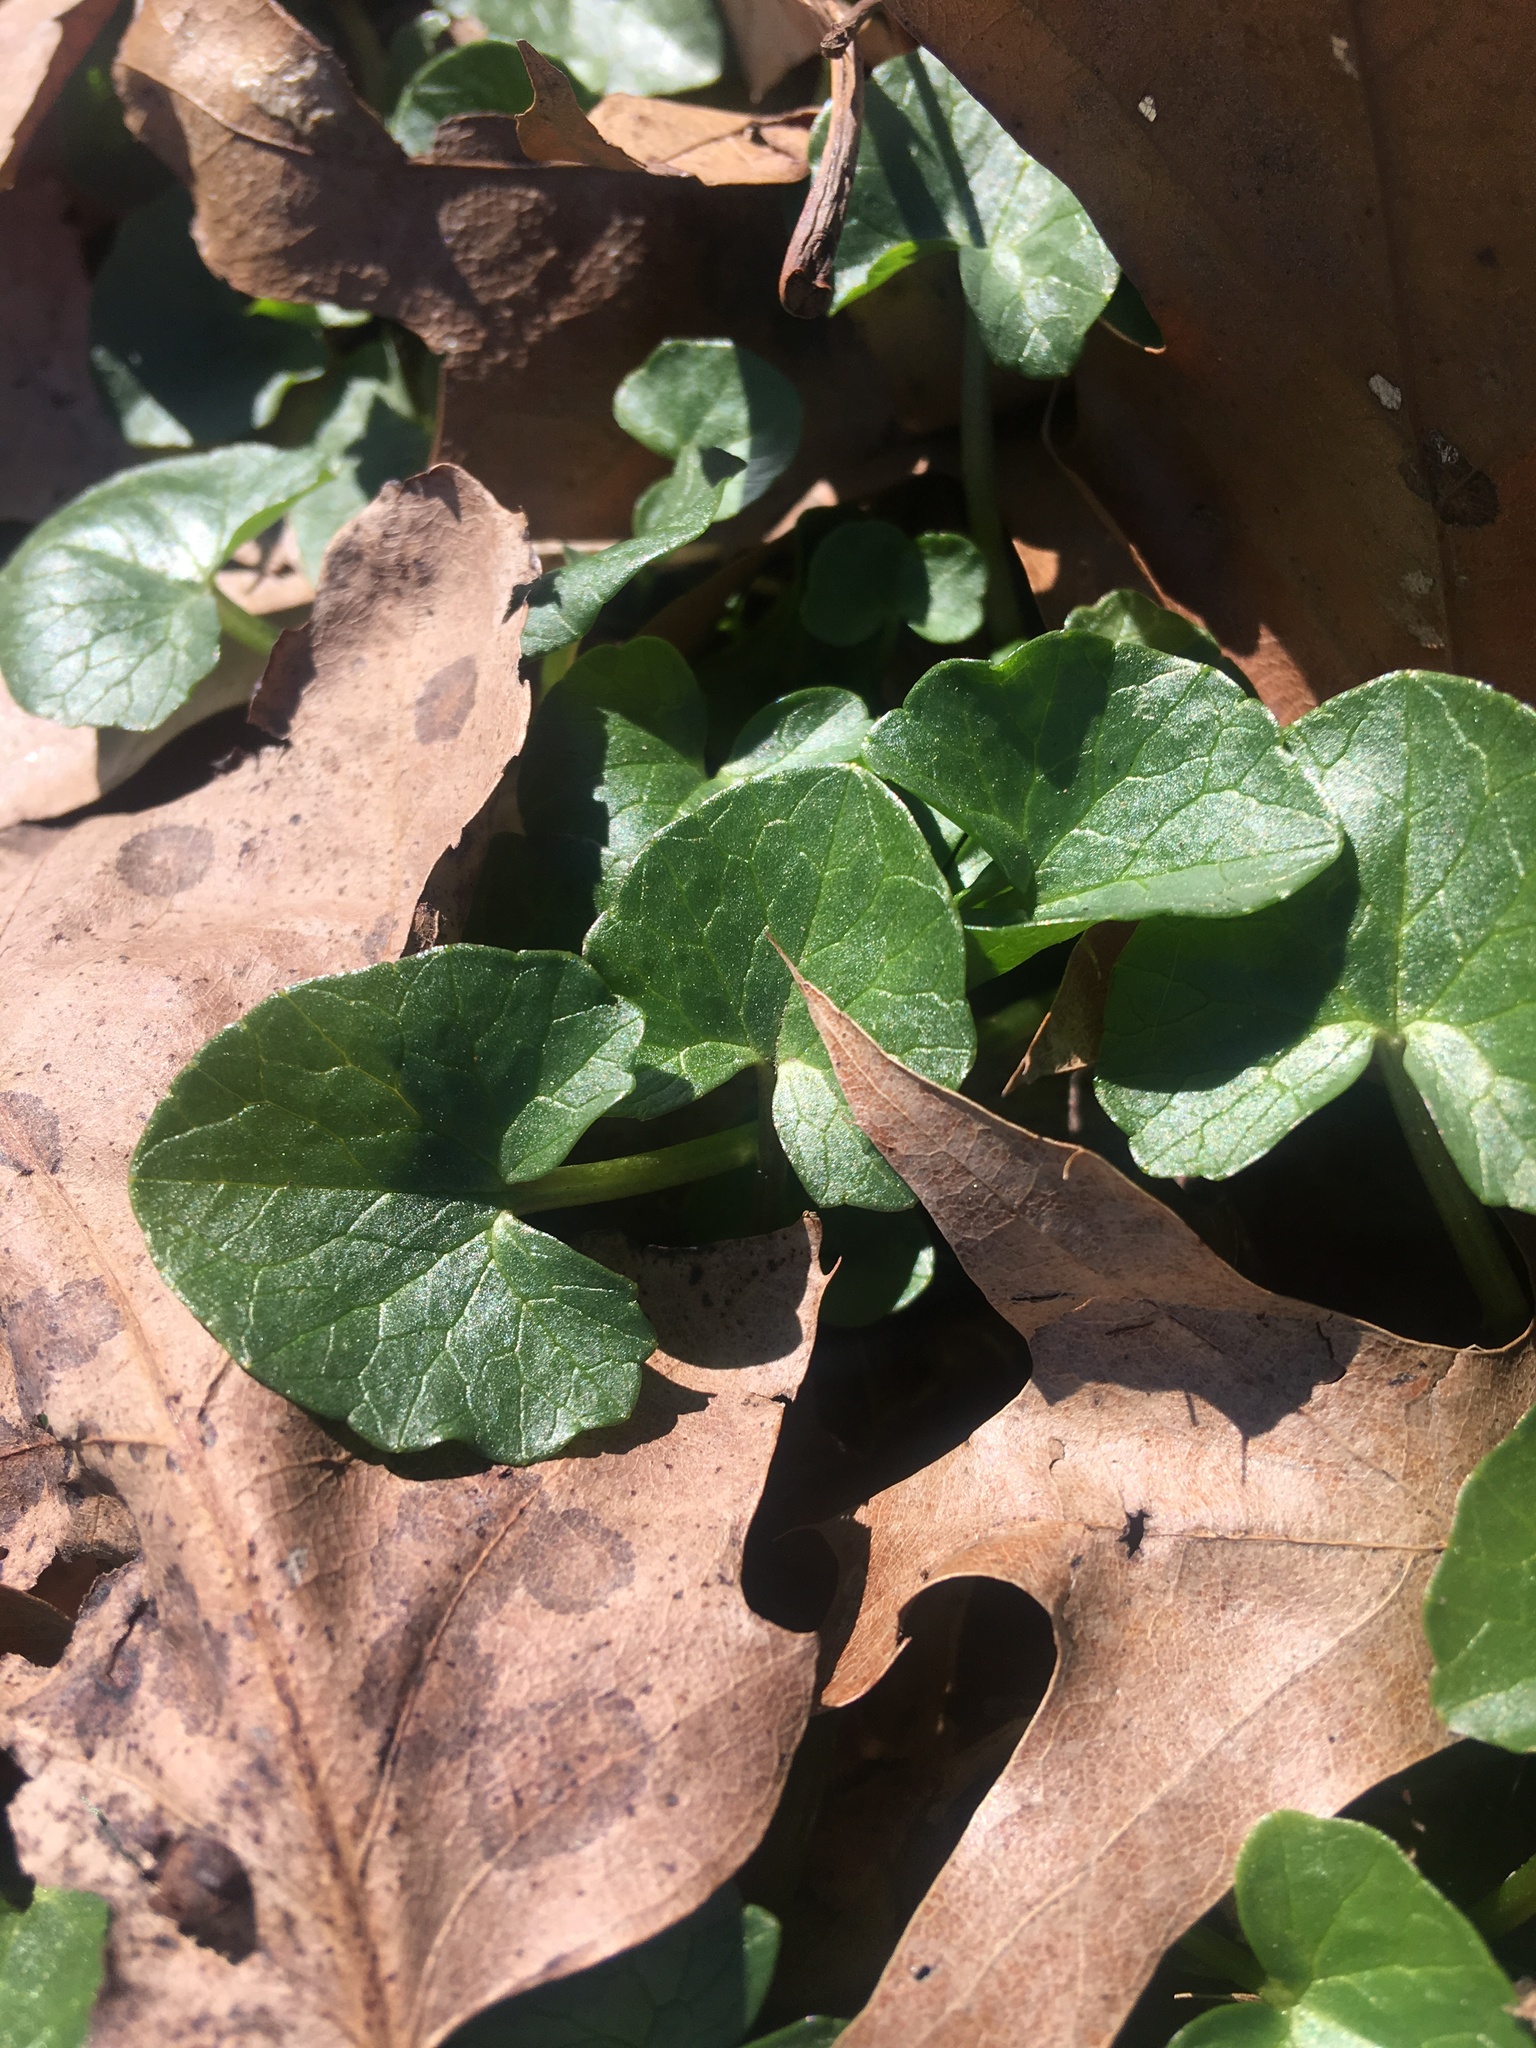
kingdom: Plantae
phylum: Tracheophyta
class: Magnoliopsida
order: Ranunculales
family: Ranunculaceae
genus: Ficaria
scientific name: Ficaria verna
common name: Lesser celandine
